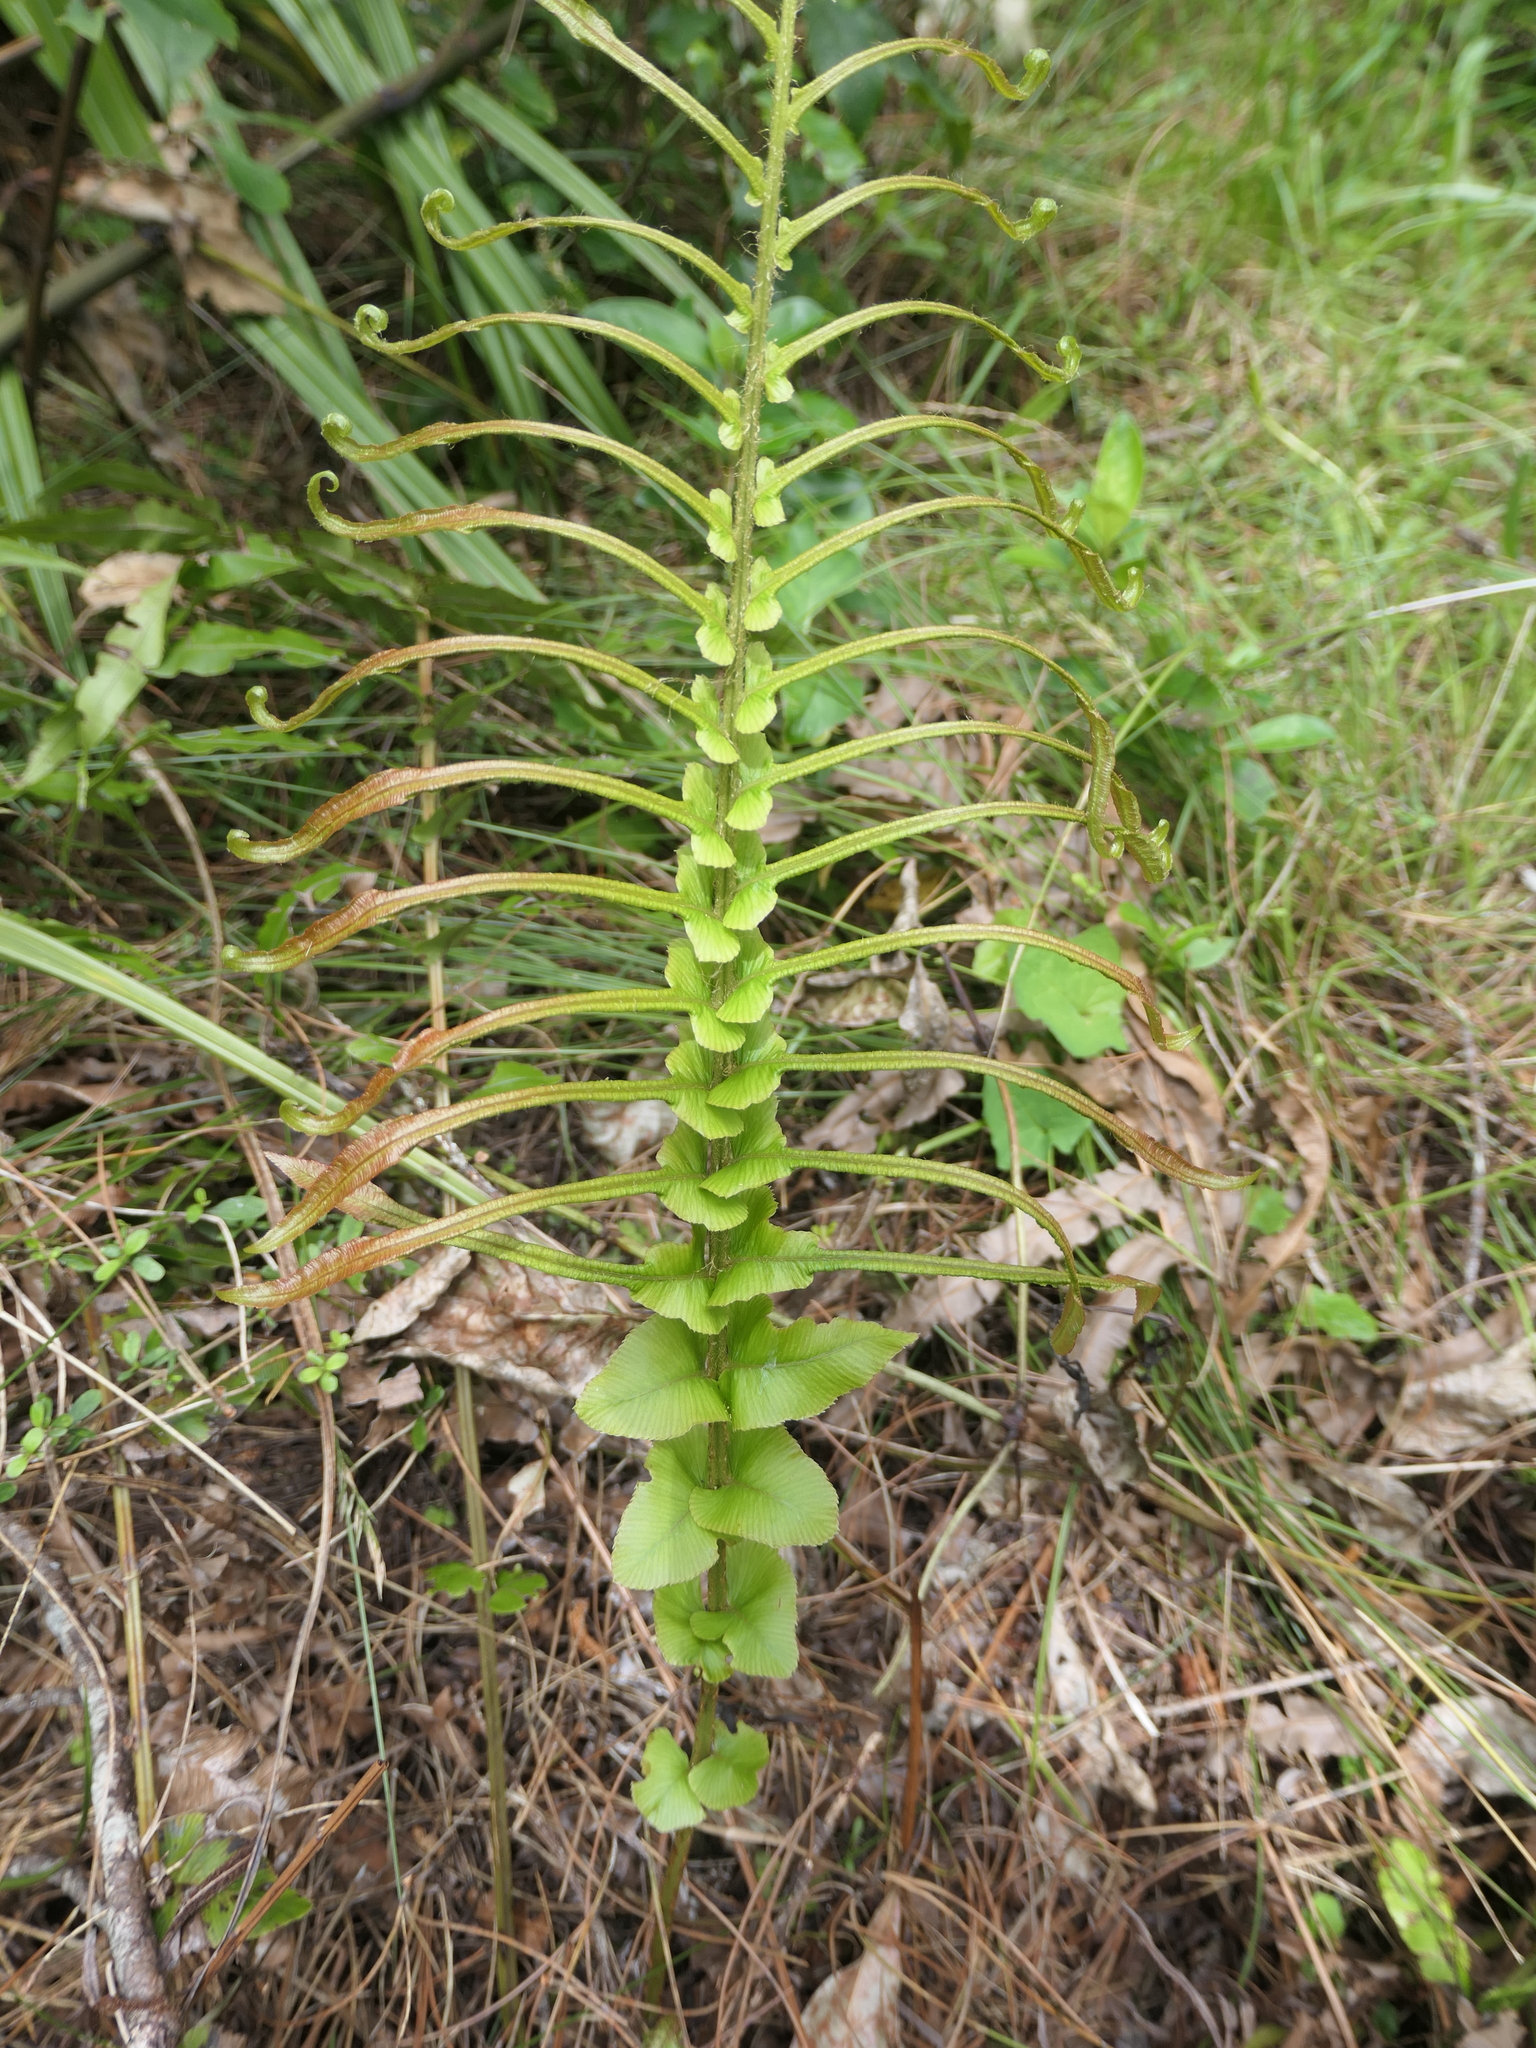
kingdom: Plantae
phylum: Tracheophyta
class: Polypodiopsida
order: Polypodiales
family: Blechnaceae
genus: Parablechnum
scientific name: Parablechnum novae-zelandiae
